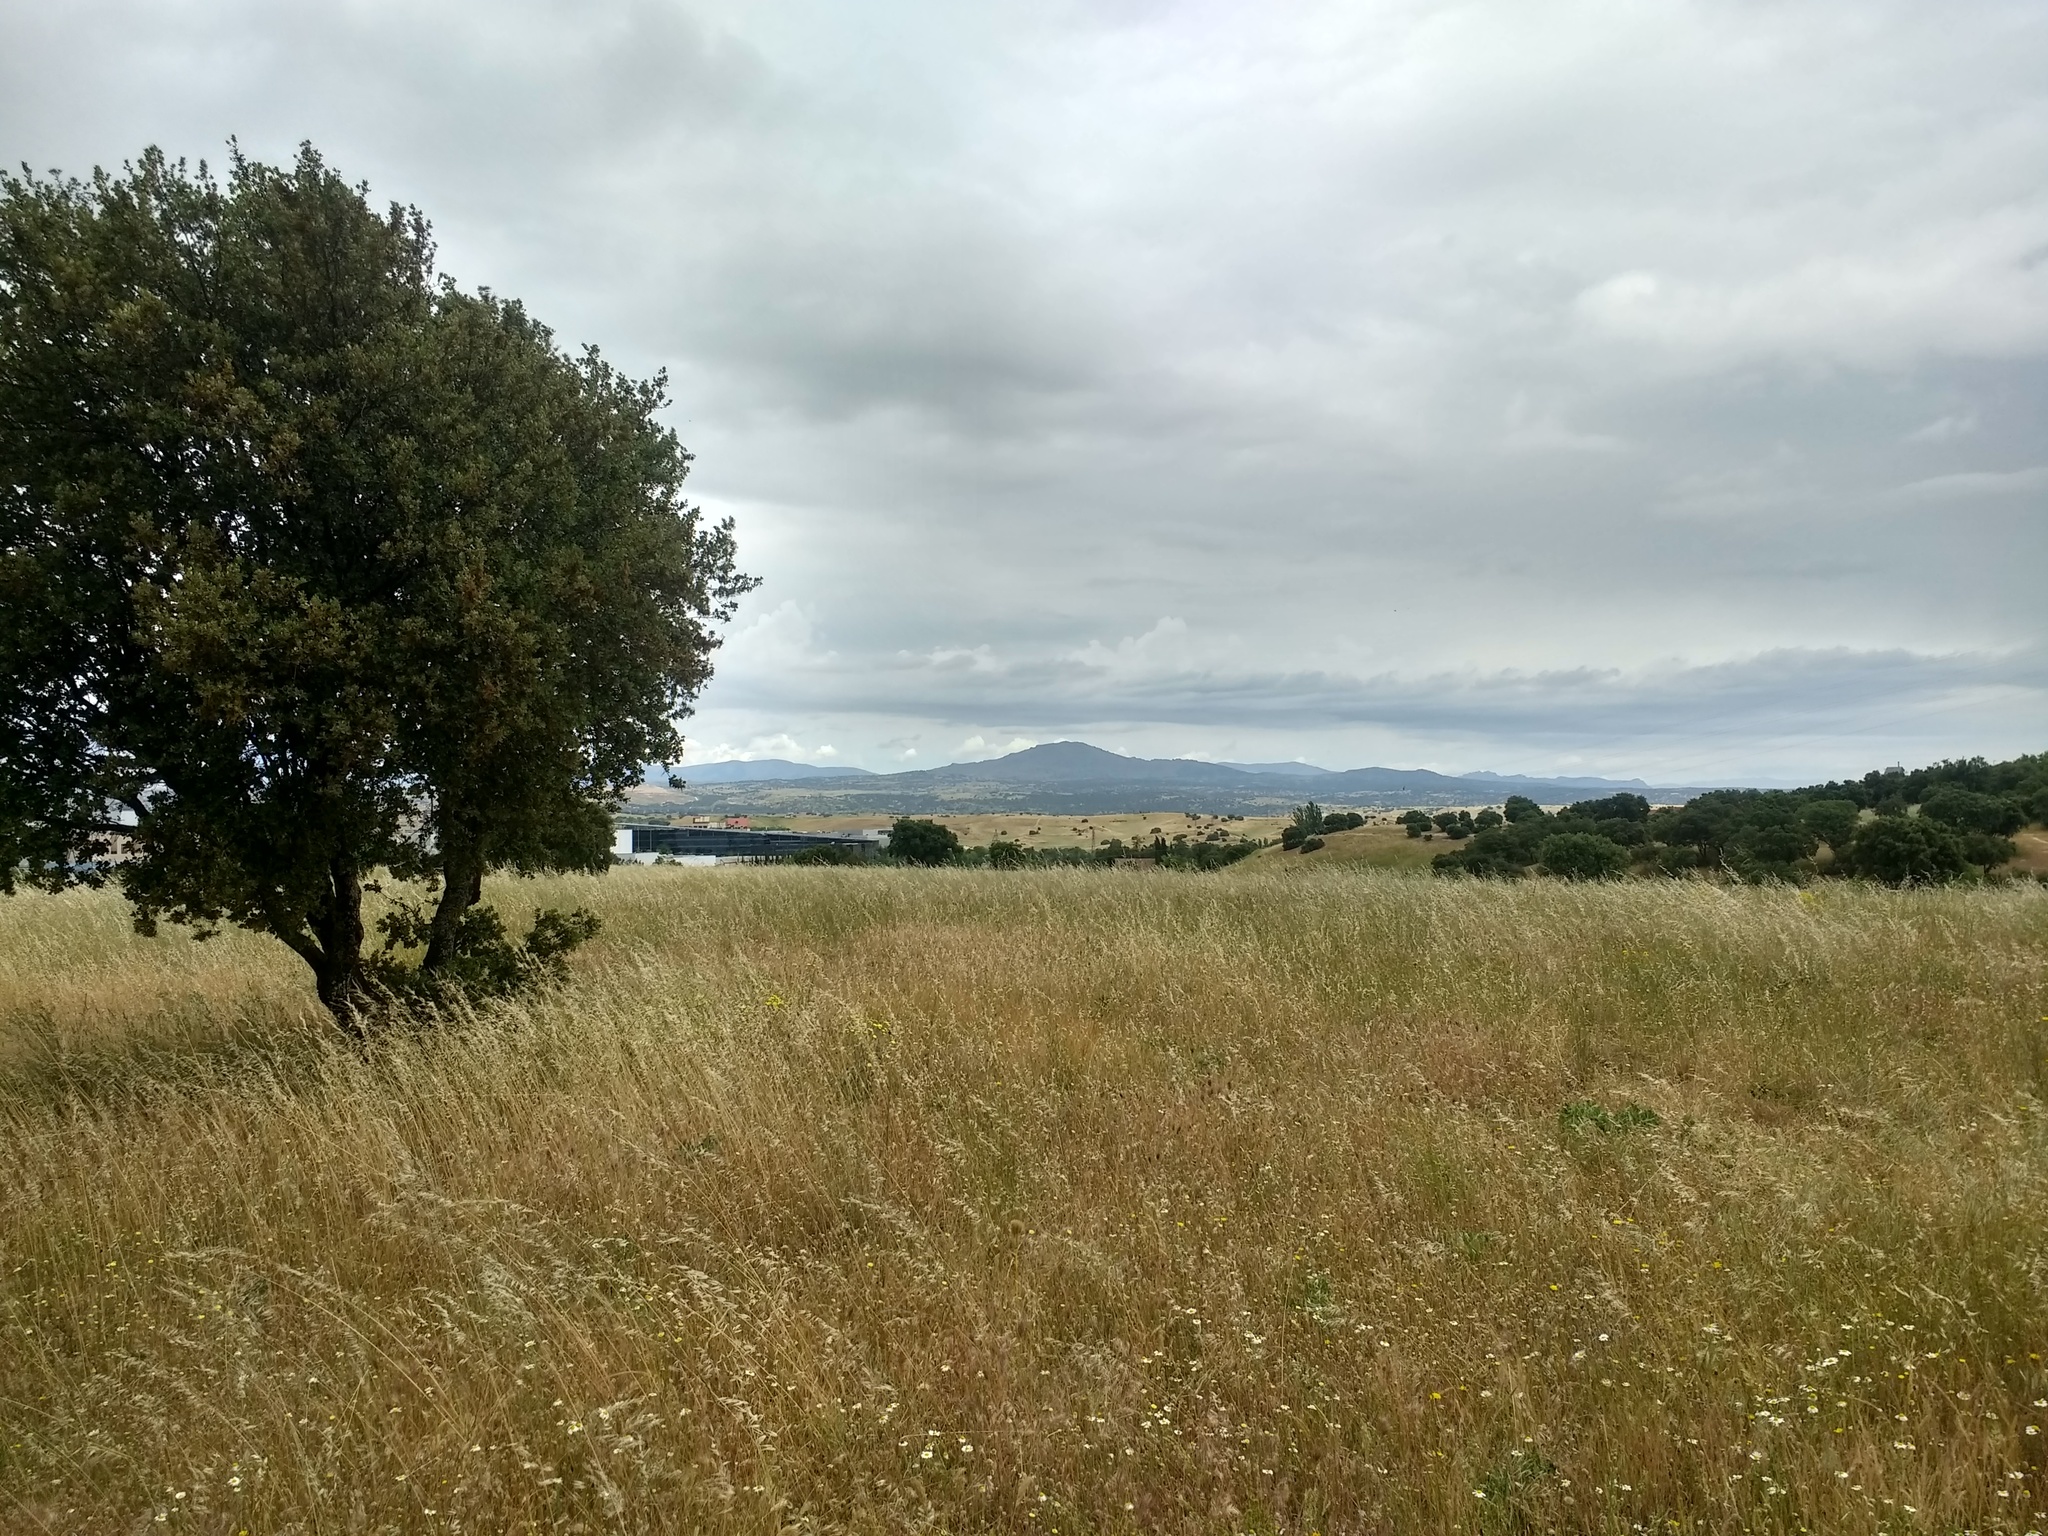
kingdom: Plantae
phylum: Tracheophyta
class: Magnoliopsida
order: Fagales
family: Fagaceae
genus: Quercus
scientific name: Quercus rotundifolia
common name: Holm oak
